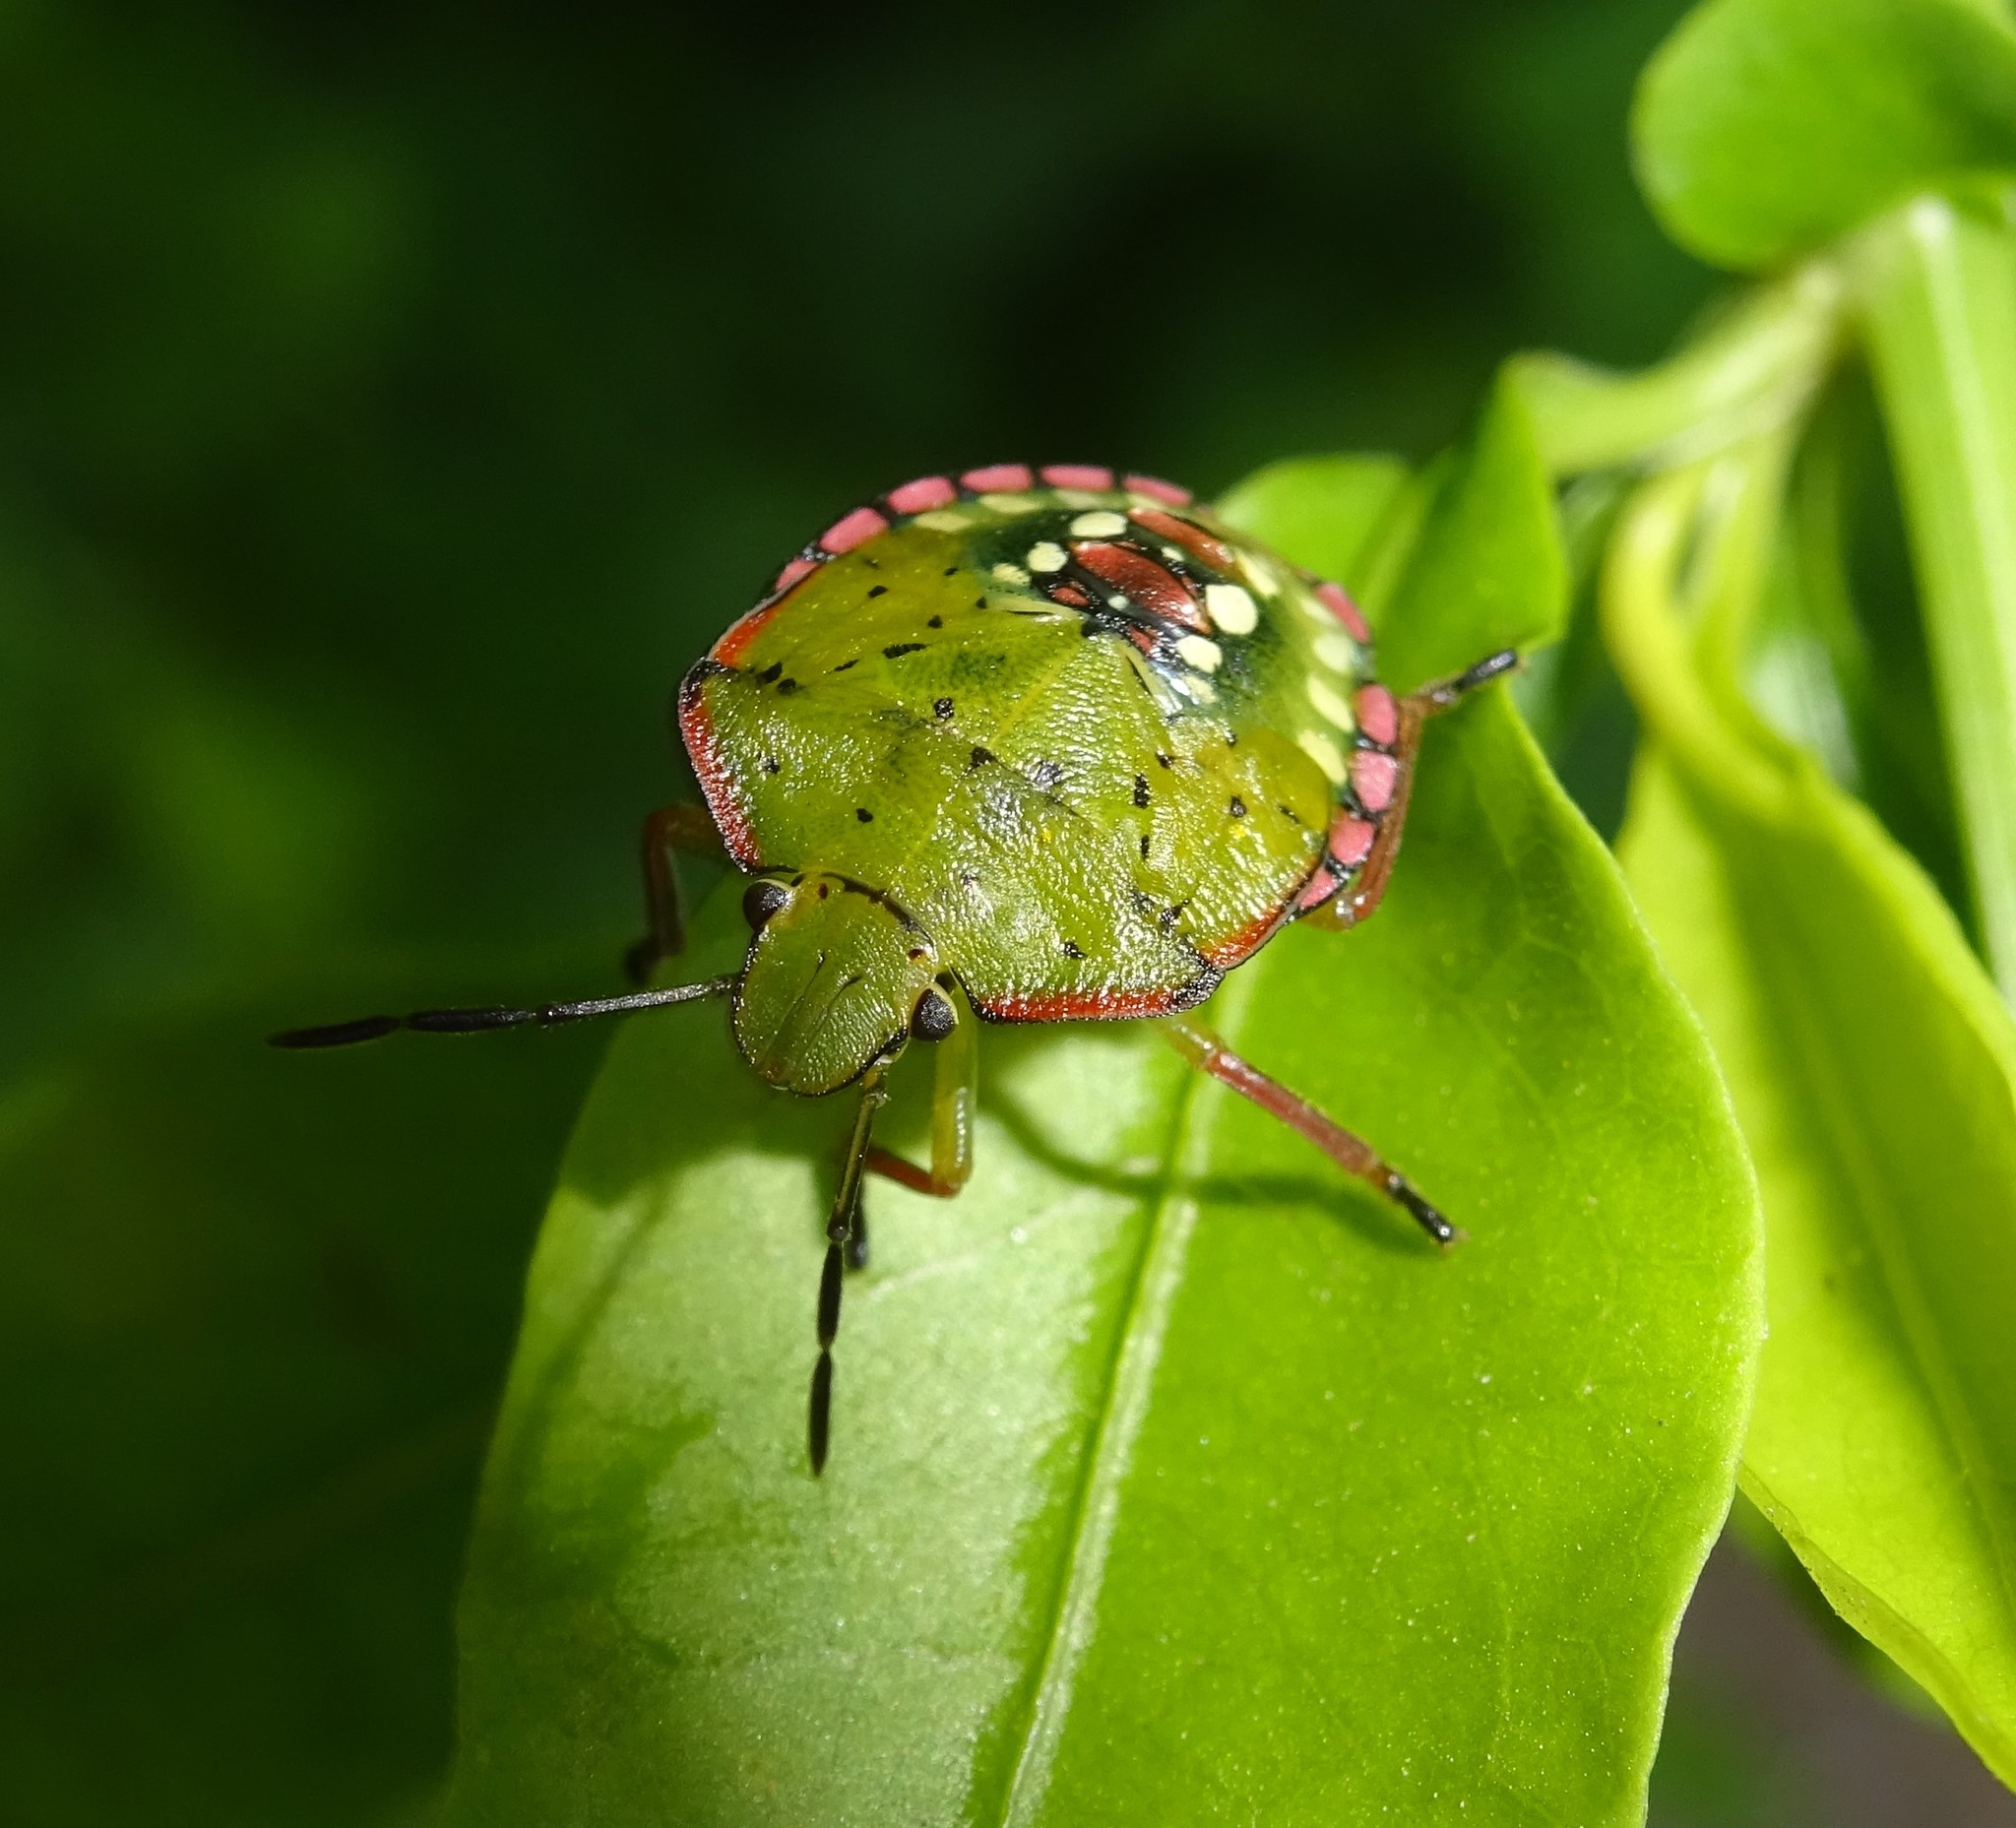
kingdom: Animalia
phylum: Arthropoda
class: Insecta
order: Hemiptera
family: Pentatomidae
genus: Nezara
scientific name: Nezara viridula
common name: Southern green stink bug
